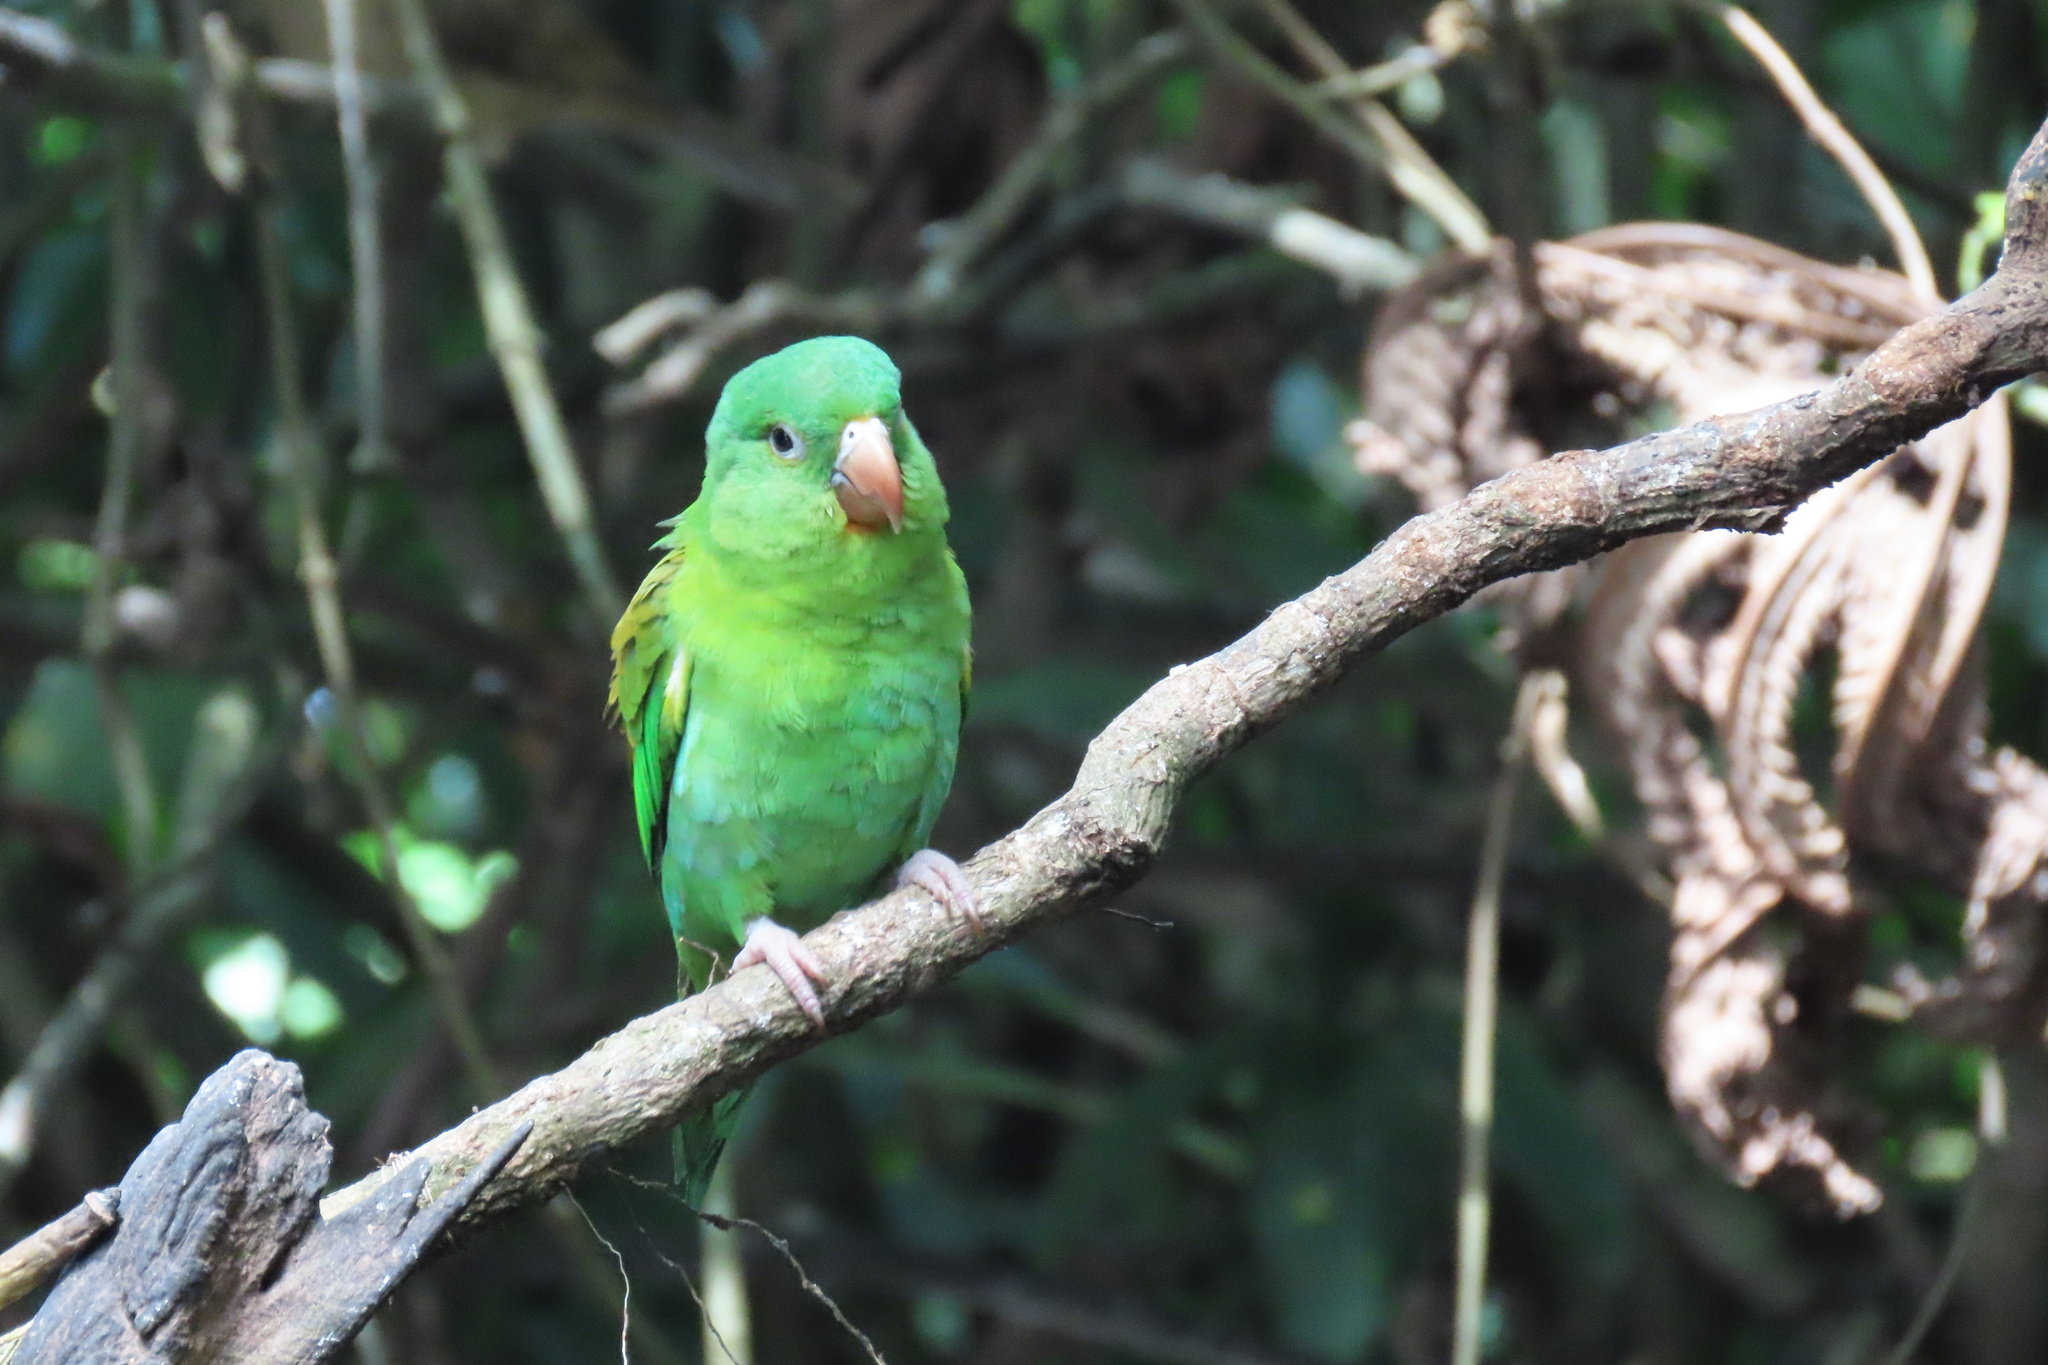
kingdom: Animalia
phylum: Chordata
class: Aves
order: Psittaciformes
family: Psittacidae
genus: Brotogeris
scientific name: Brotogeris jugularis
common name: Orange-chinned parakeet
